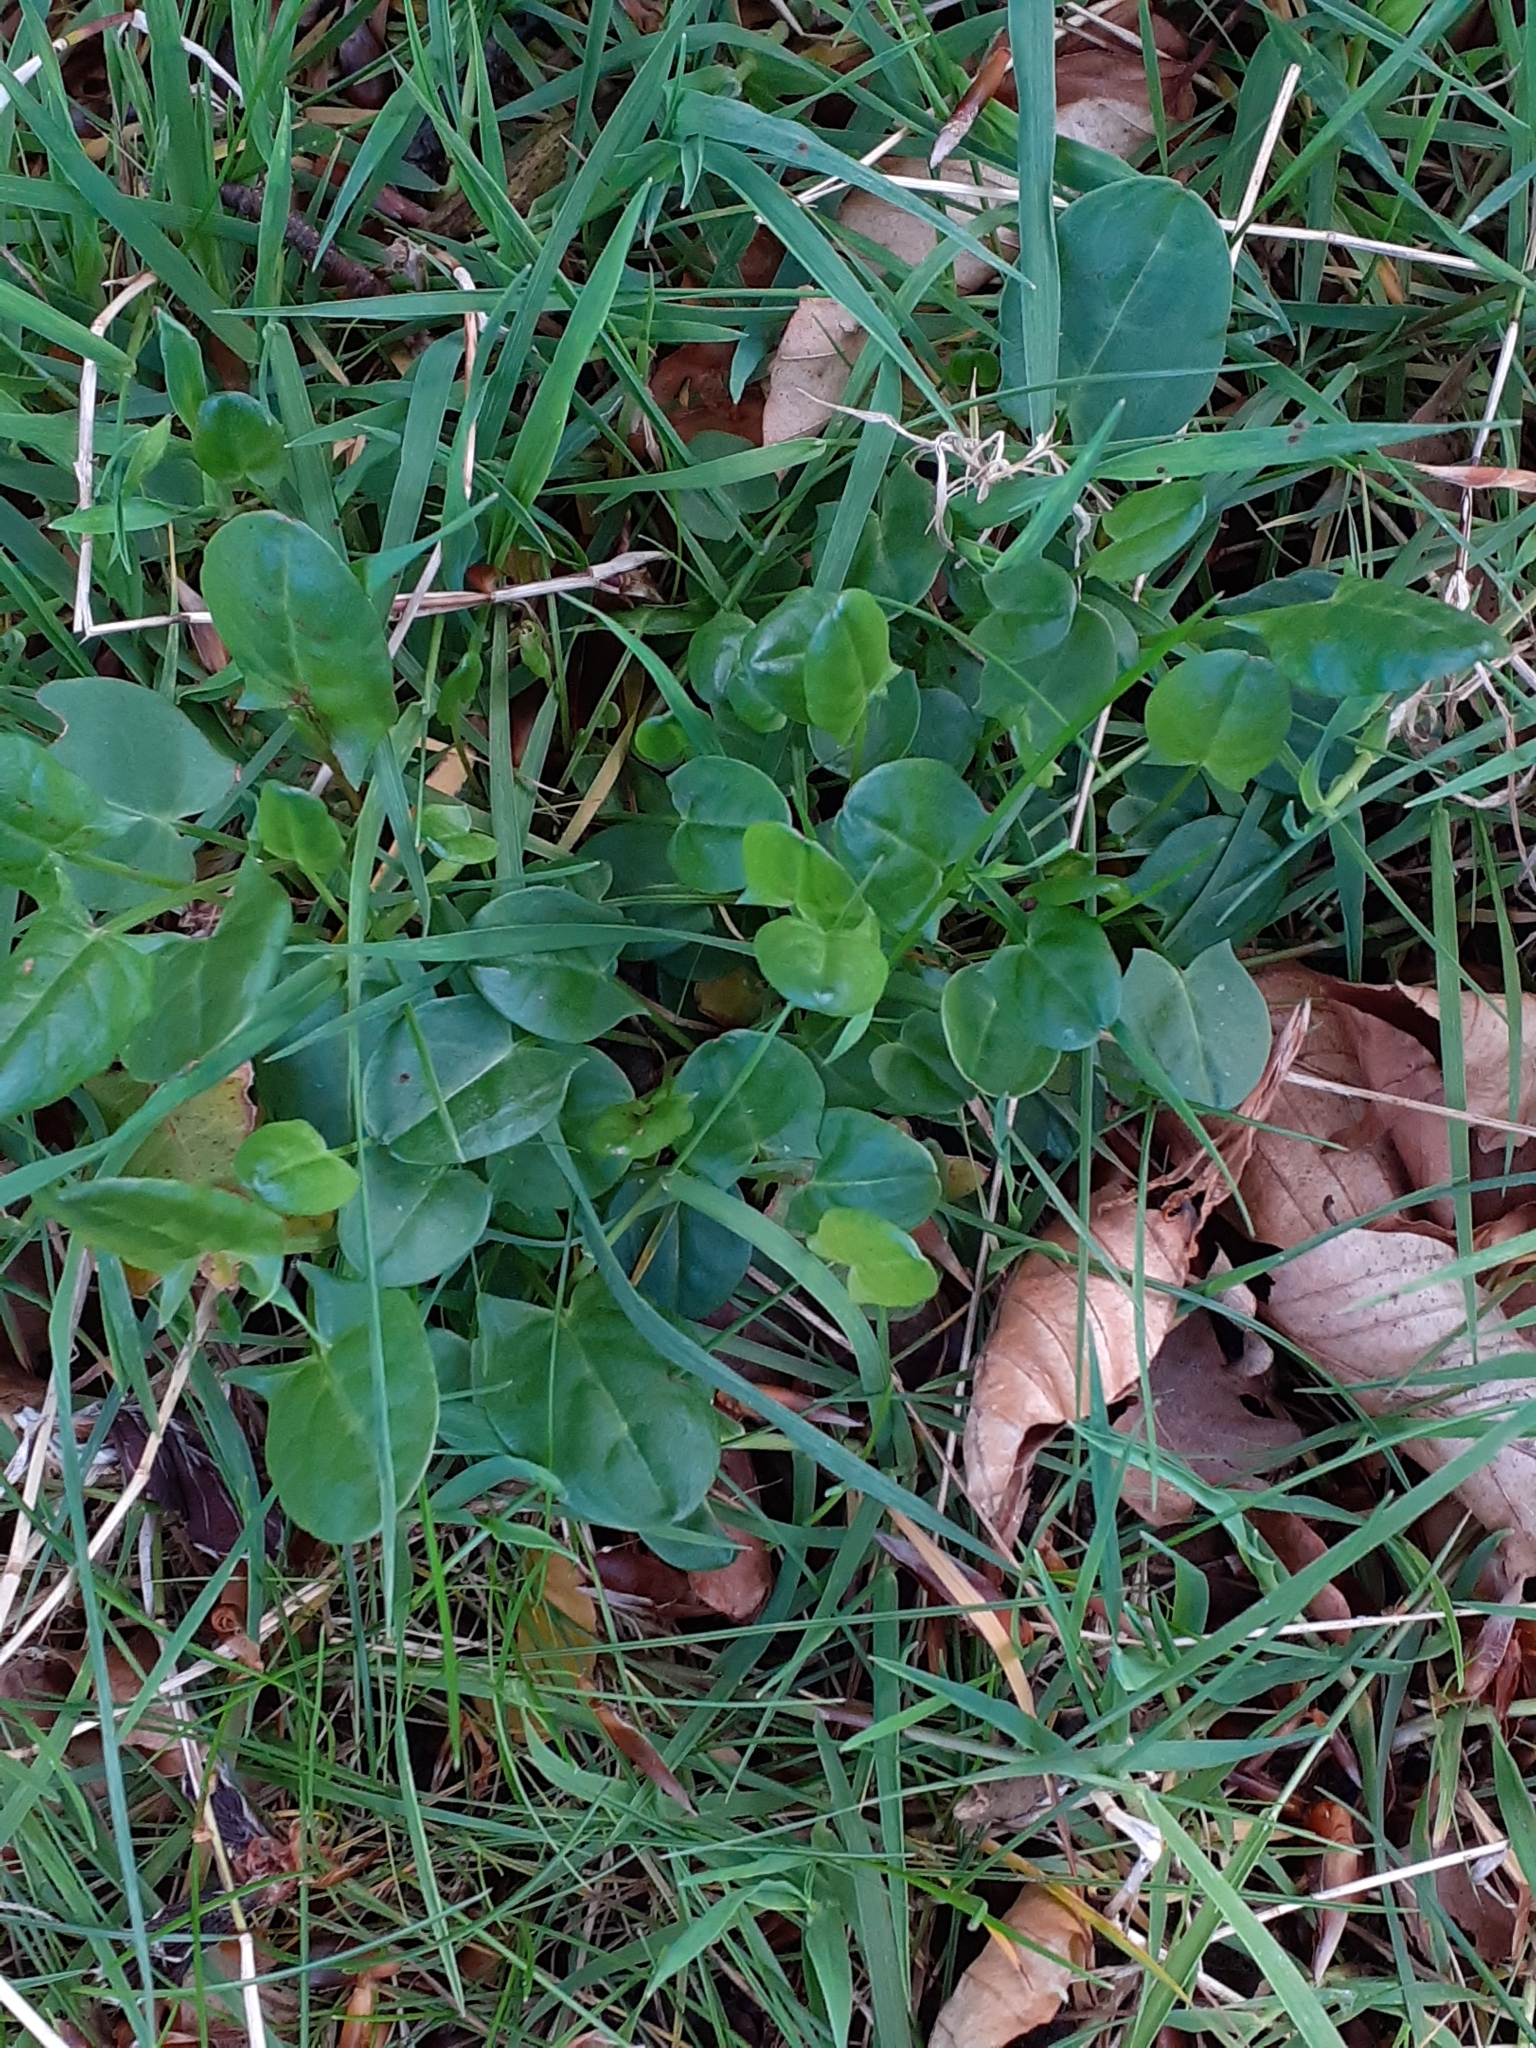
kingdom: Plantae
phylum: Tracheophyta
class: Magnoliopsida
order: Caryophyllales
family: Polygonaceae
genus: Rumex
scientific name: Rumex acetosa
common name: Garden sorrel
